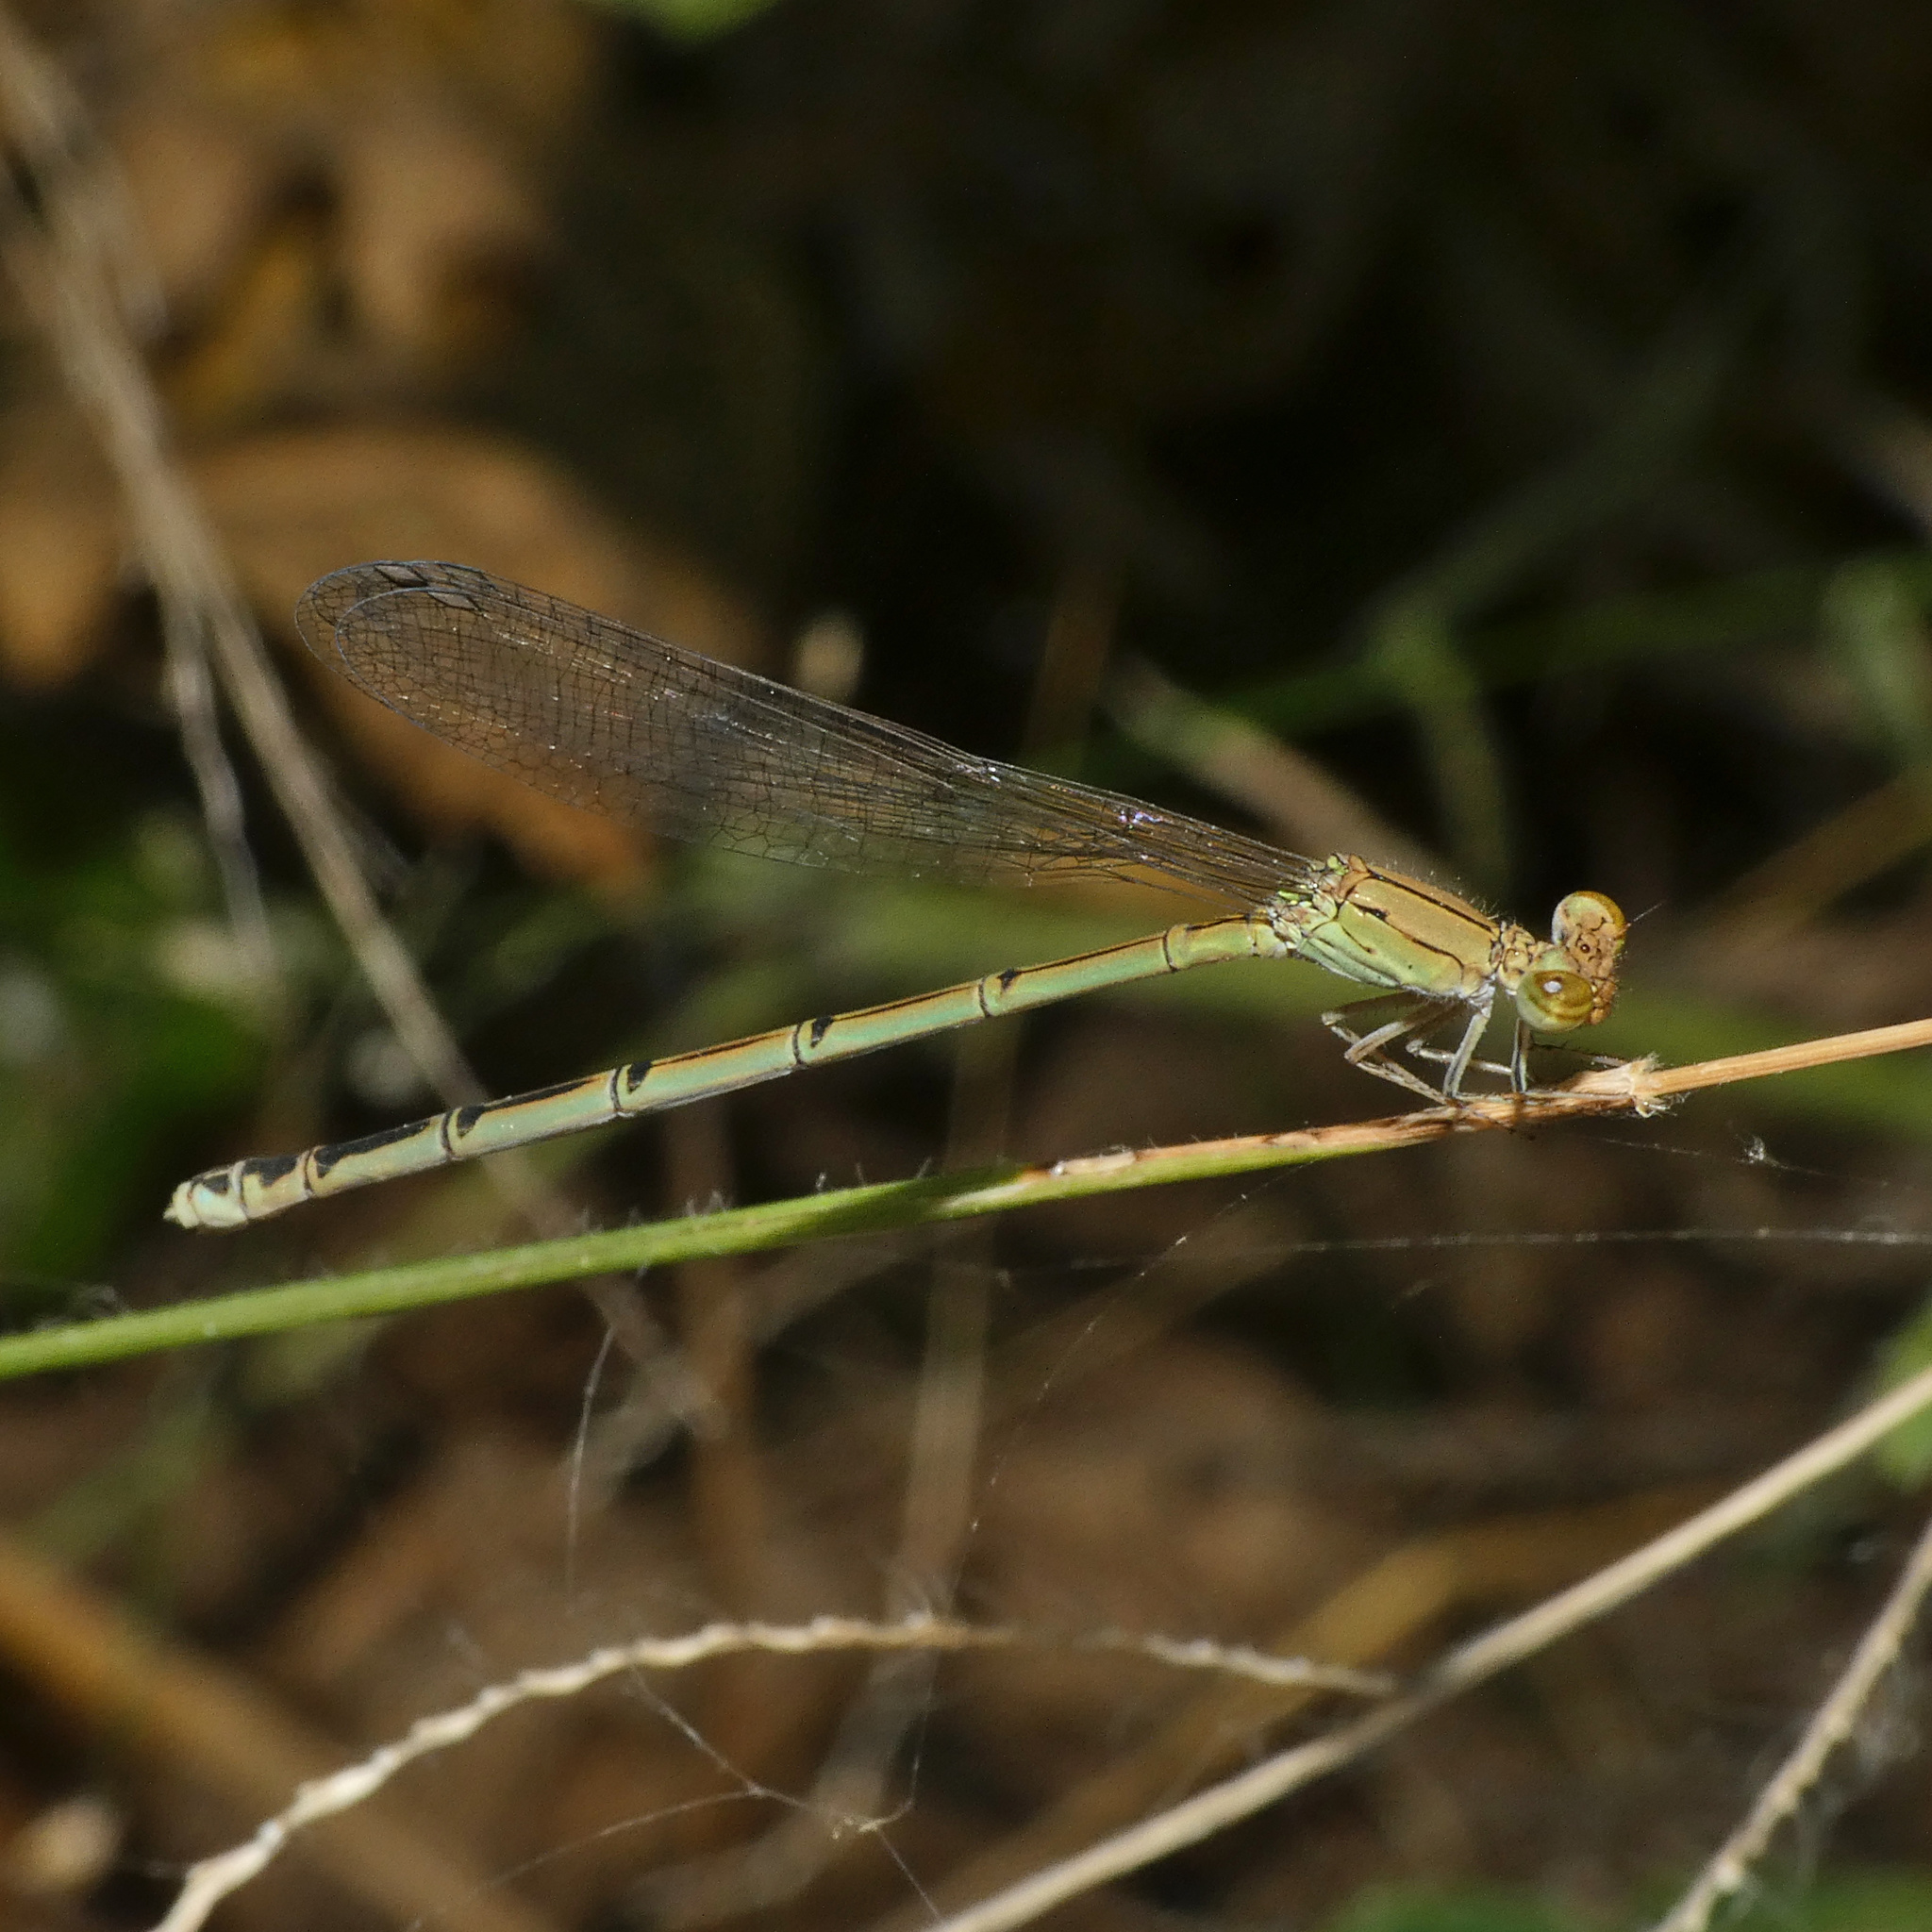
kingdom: Animalia
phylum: Arthropoda
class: Insecta
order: Odonata
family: Coenagrionidae
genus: Pseudagrion
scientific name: Pseudagrion acaciae
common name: Acacia sprite
